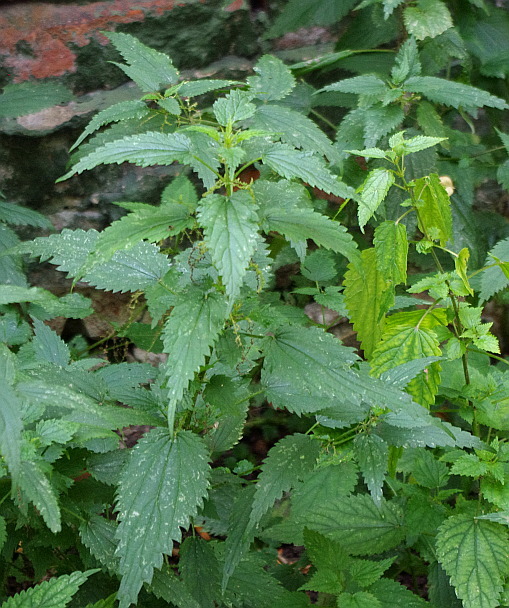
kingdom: Plantae
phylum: Tracheophyta
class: Magnoliopsida
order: Rosales
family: Urticaceae
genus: Urtica
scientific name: Urtica dioica
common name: Common nettle
